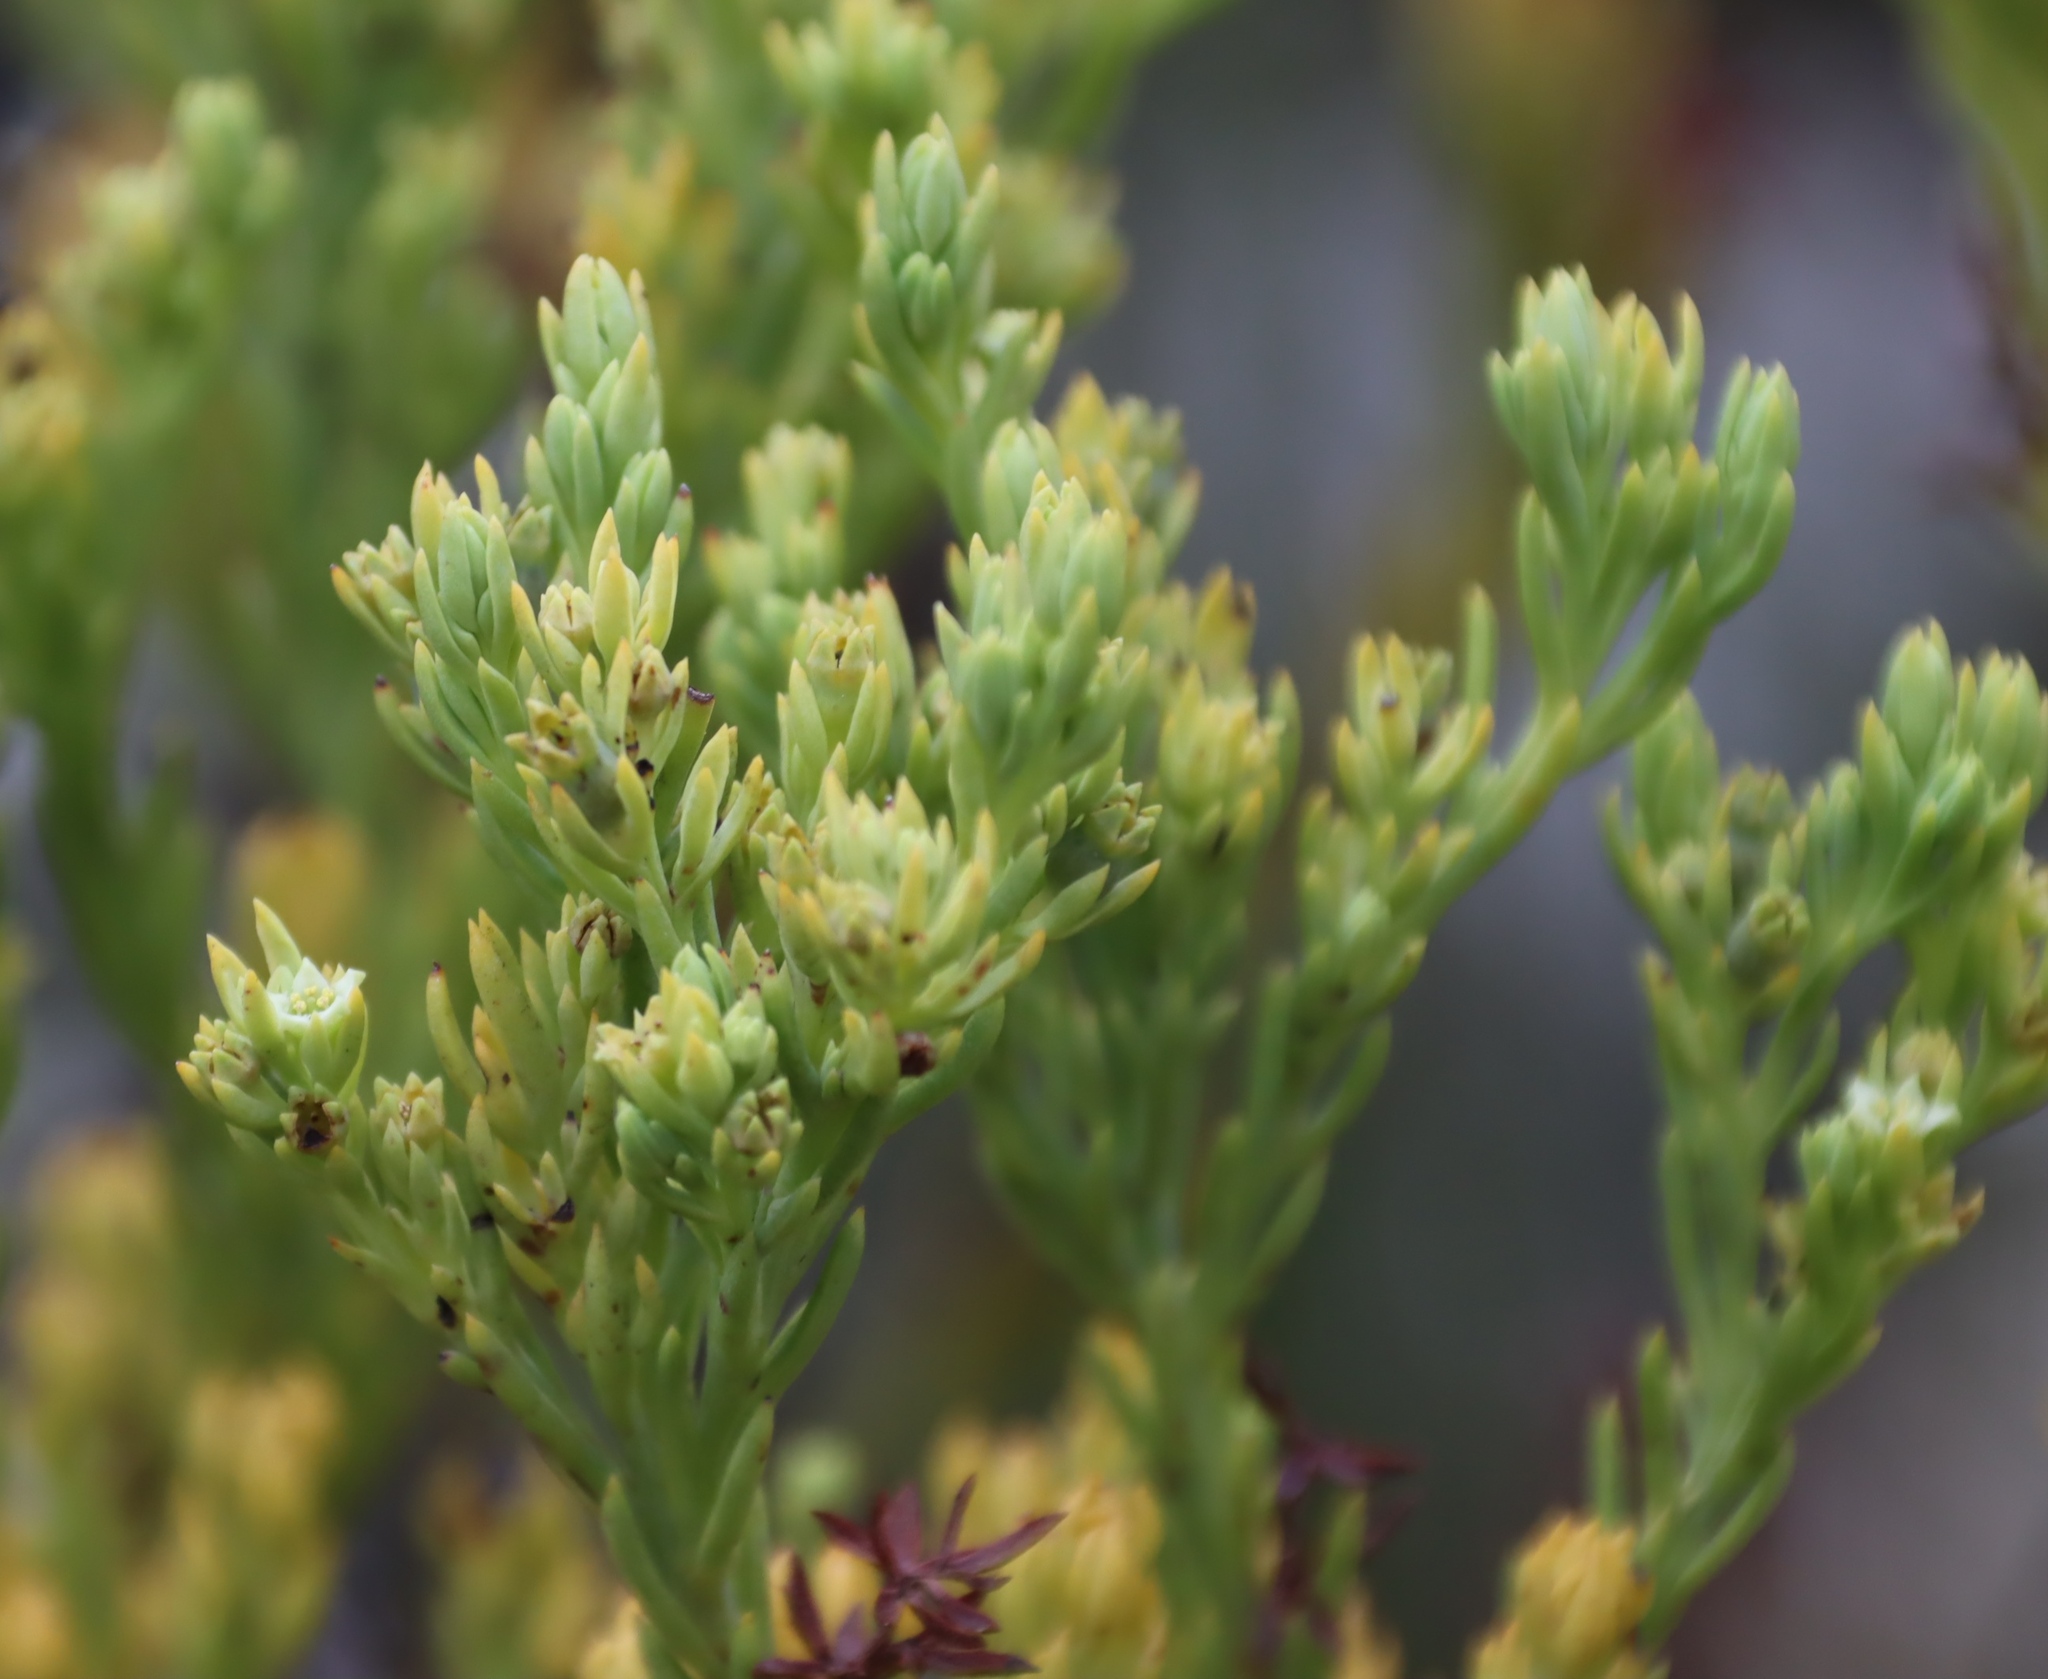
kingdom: Plantae
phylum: Tracheophyta
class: Magnoliopsida
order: Santalales
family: Thesiaceae
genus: Thesium
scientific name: Thesium foliosum
